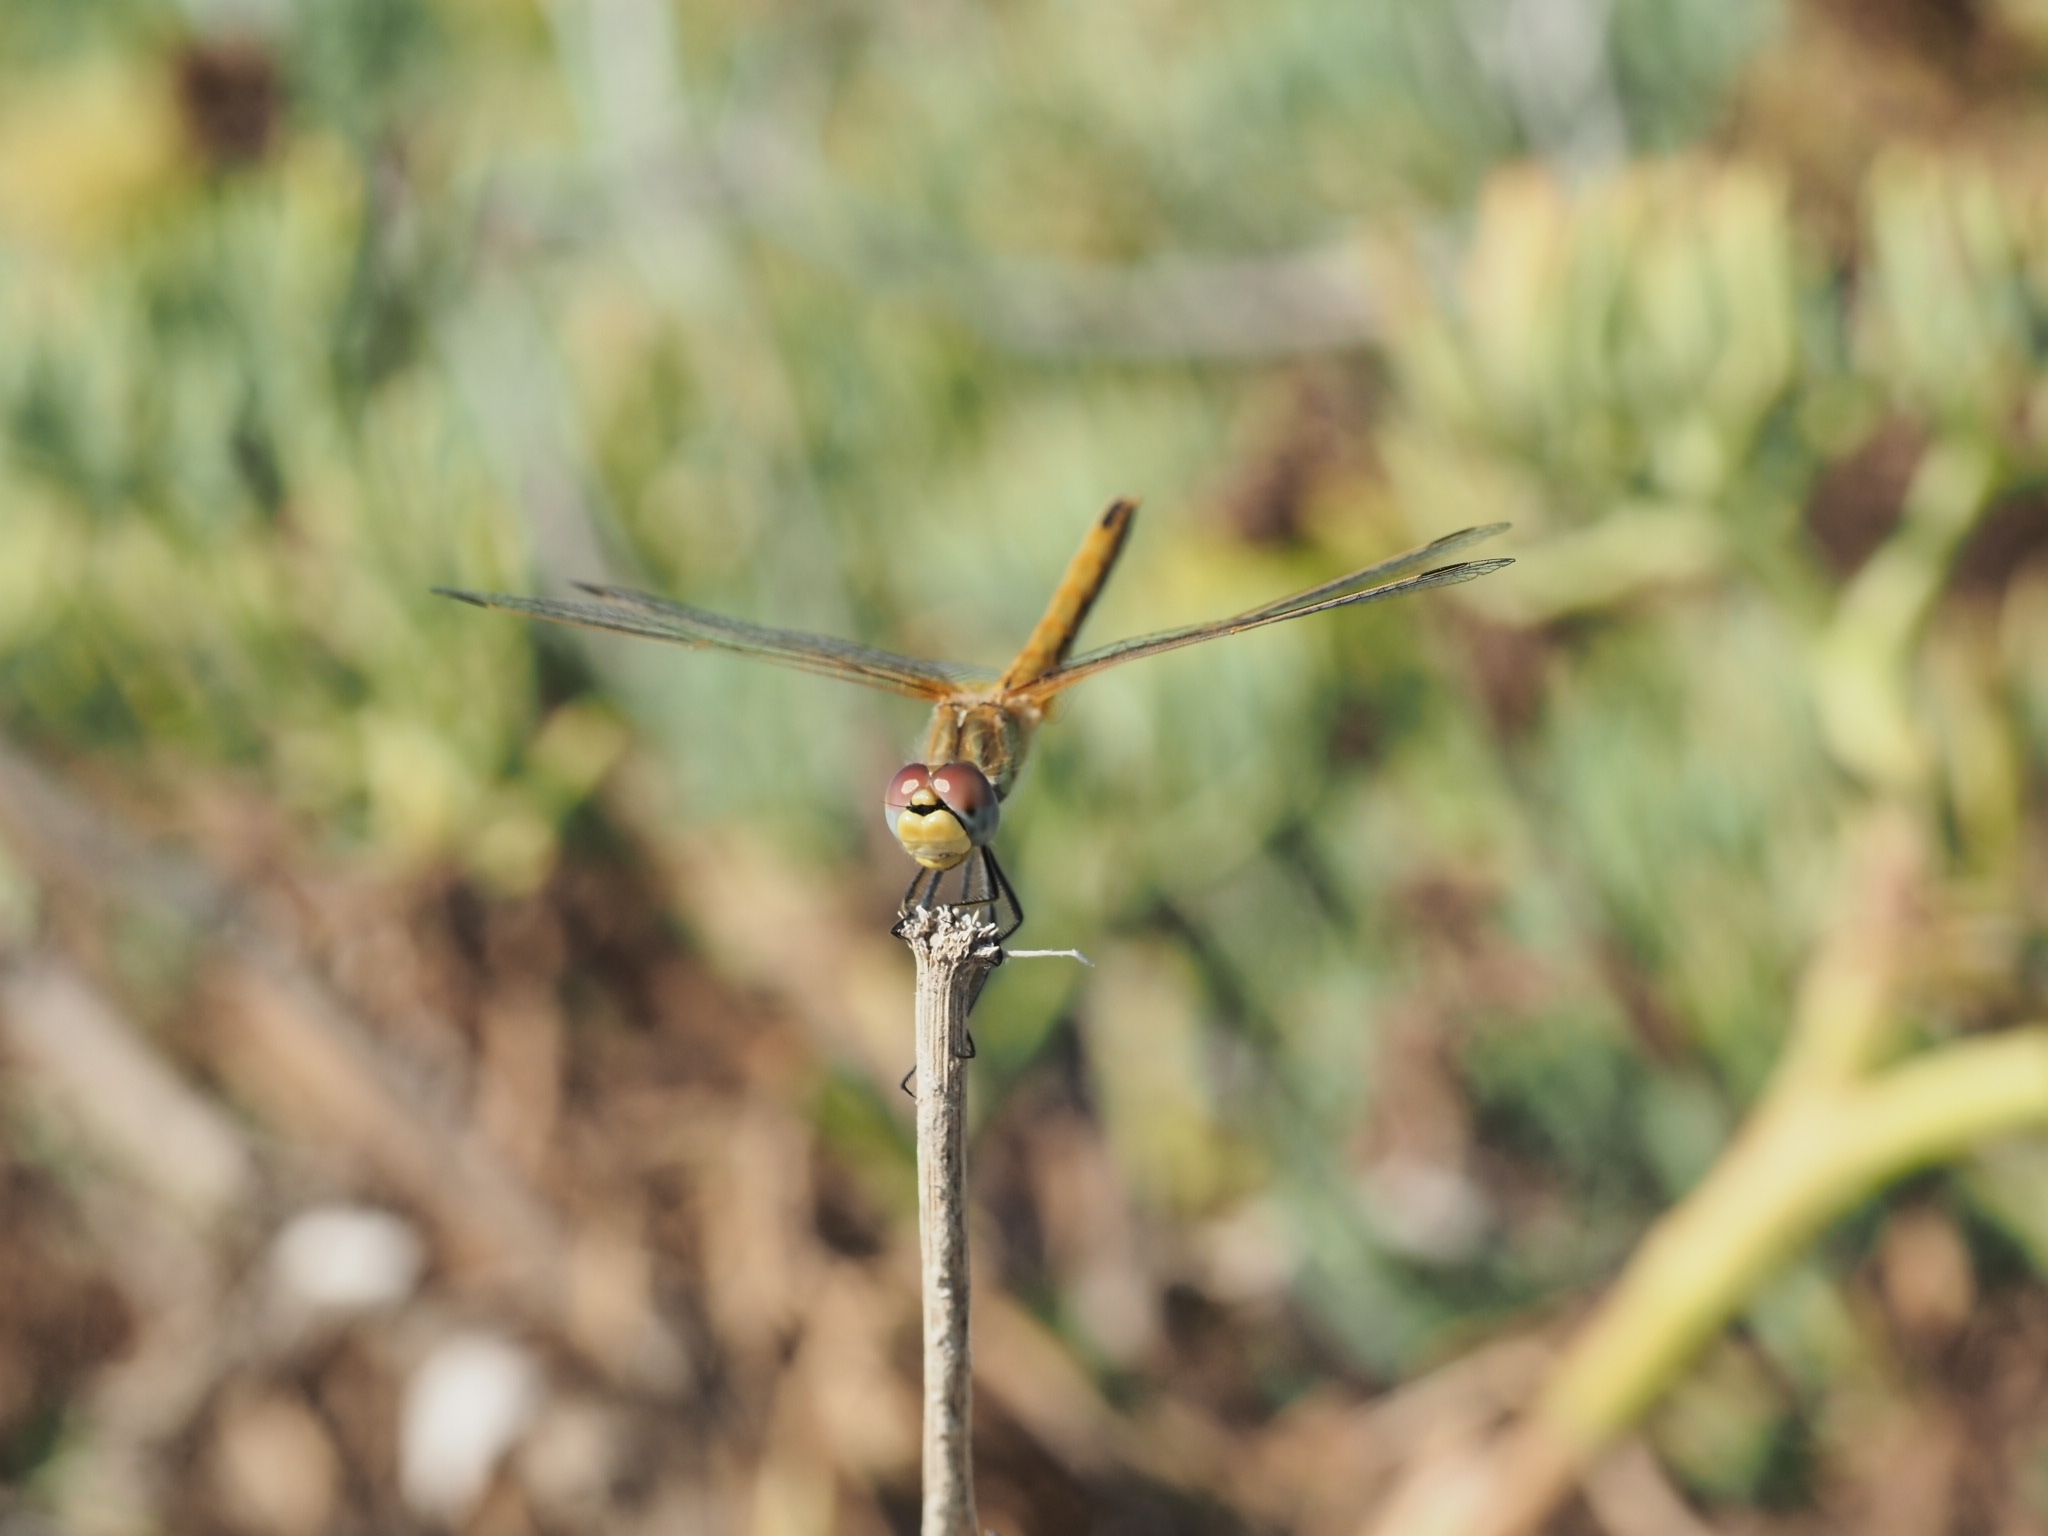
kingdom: Animalia
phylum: Arthropoda
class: Insecta
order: Odonata
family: Libellulidae
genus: Sympetrum
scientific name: Sympetrum fonscolombii
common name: Red-veined darter
